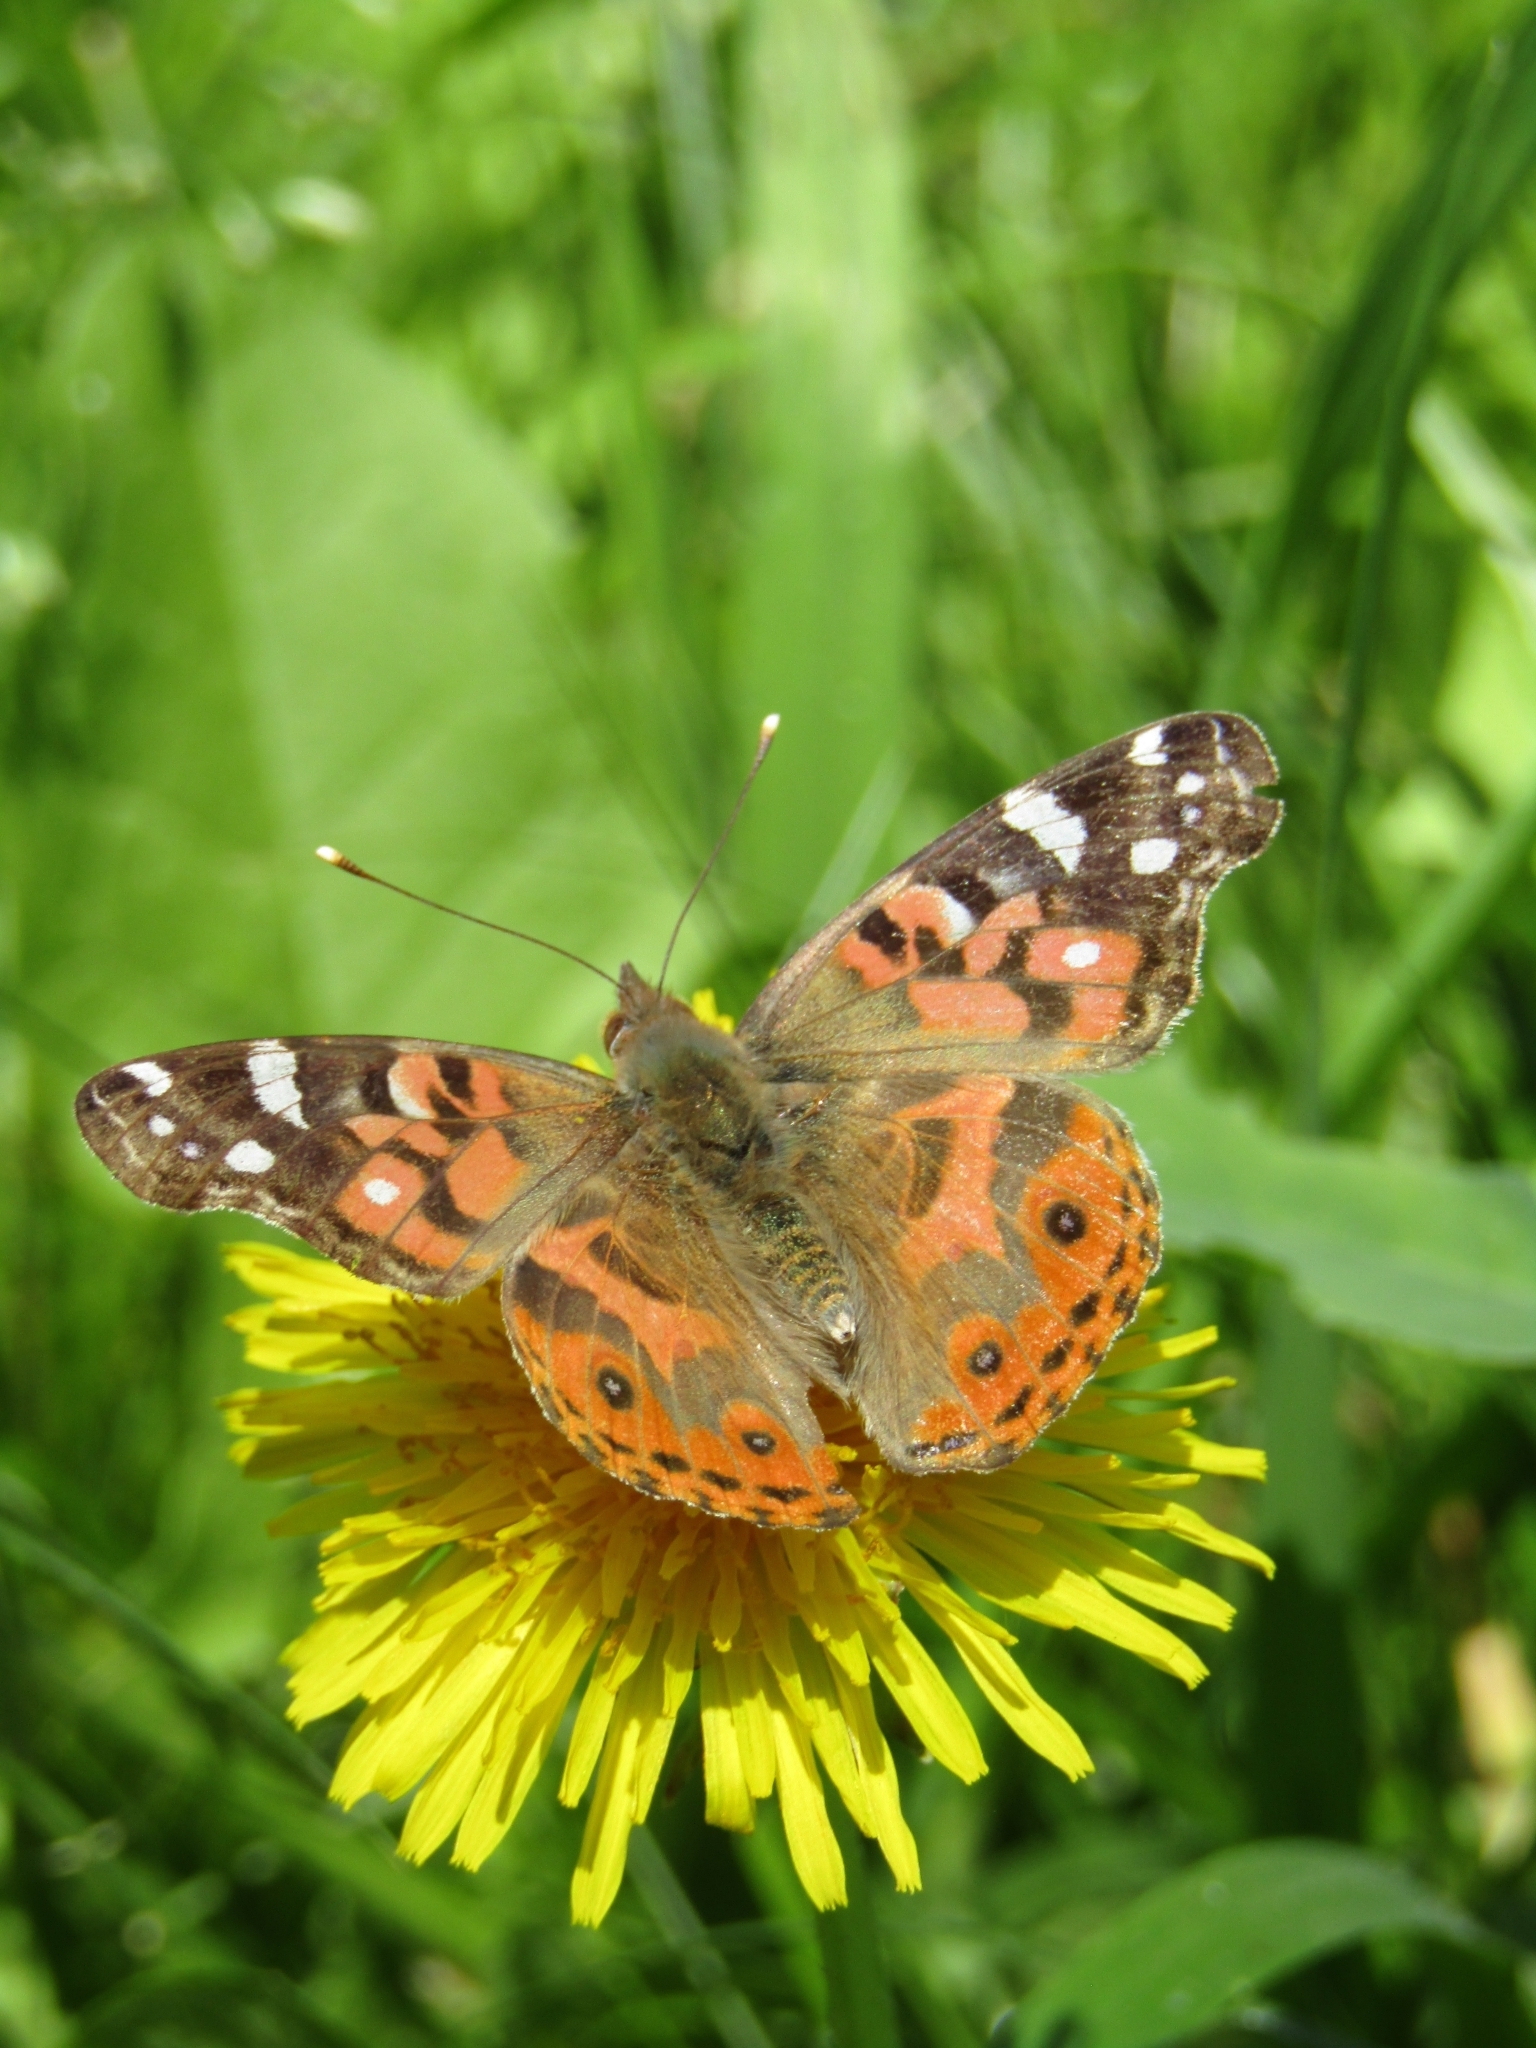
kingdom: Animalia
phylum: Arthropoda
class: Insecta
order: Lepidoptera
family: Nymphalidae
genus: Vanessa
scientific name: Vanessa braziliensis
